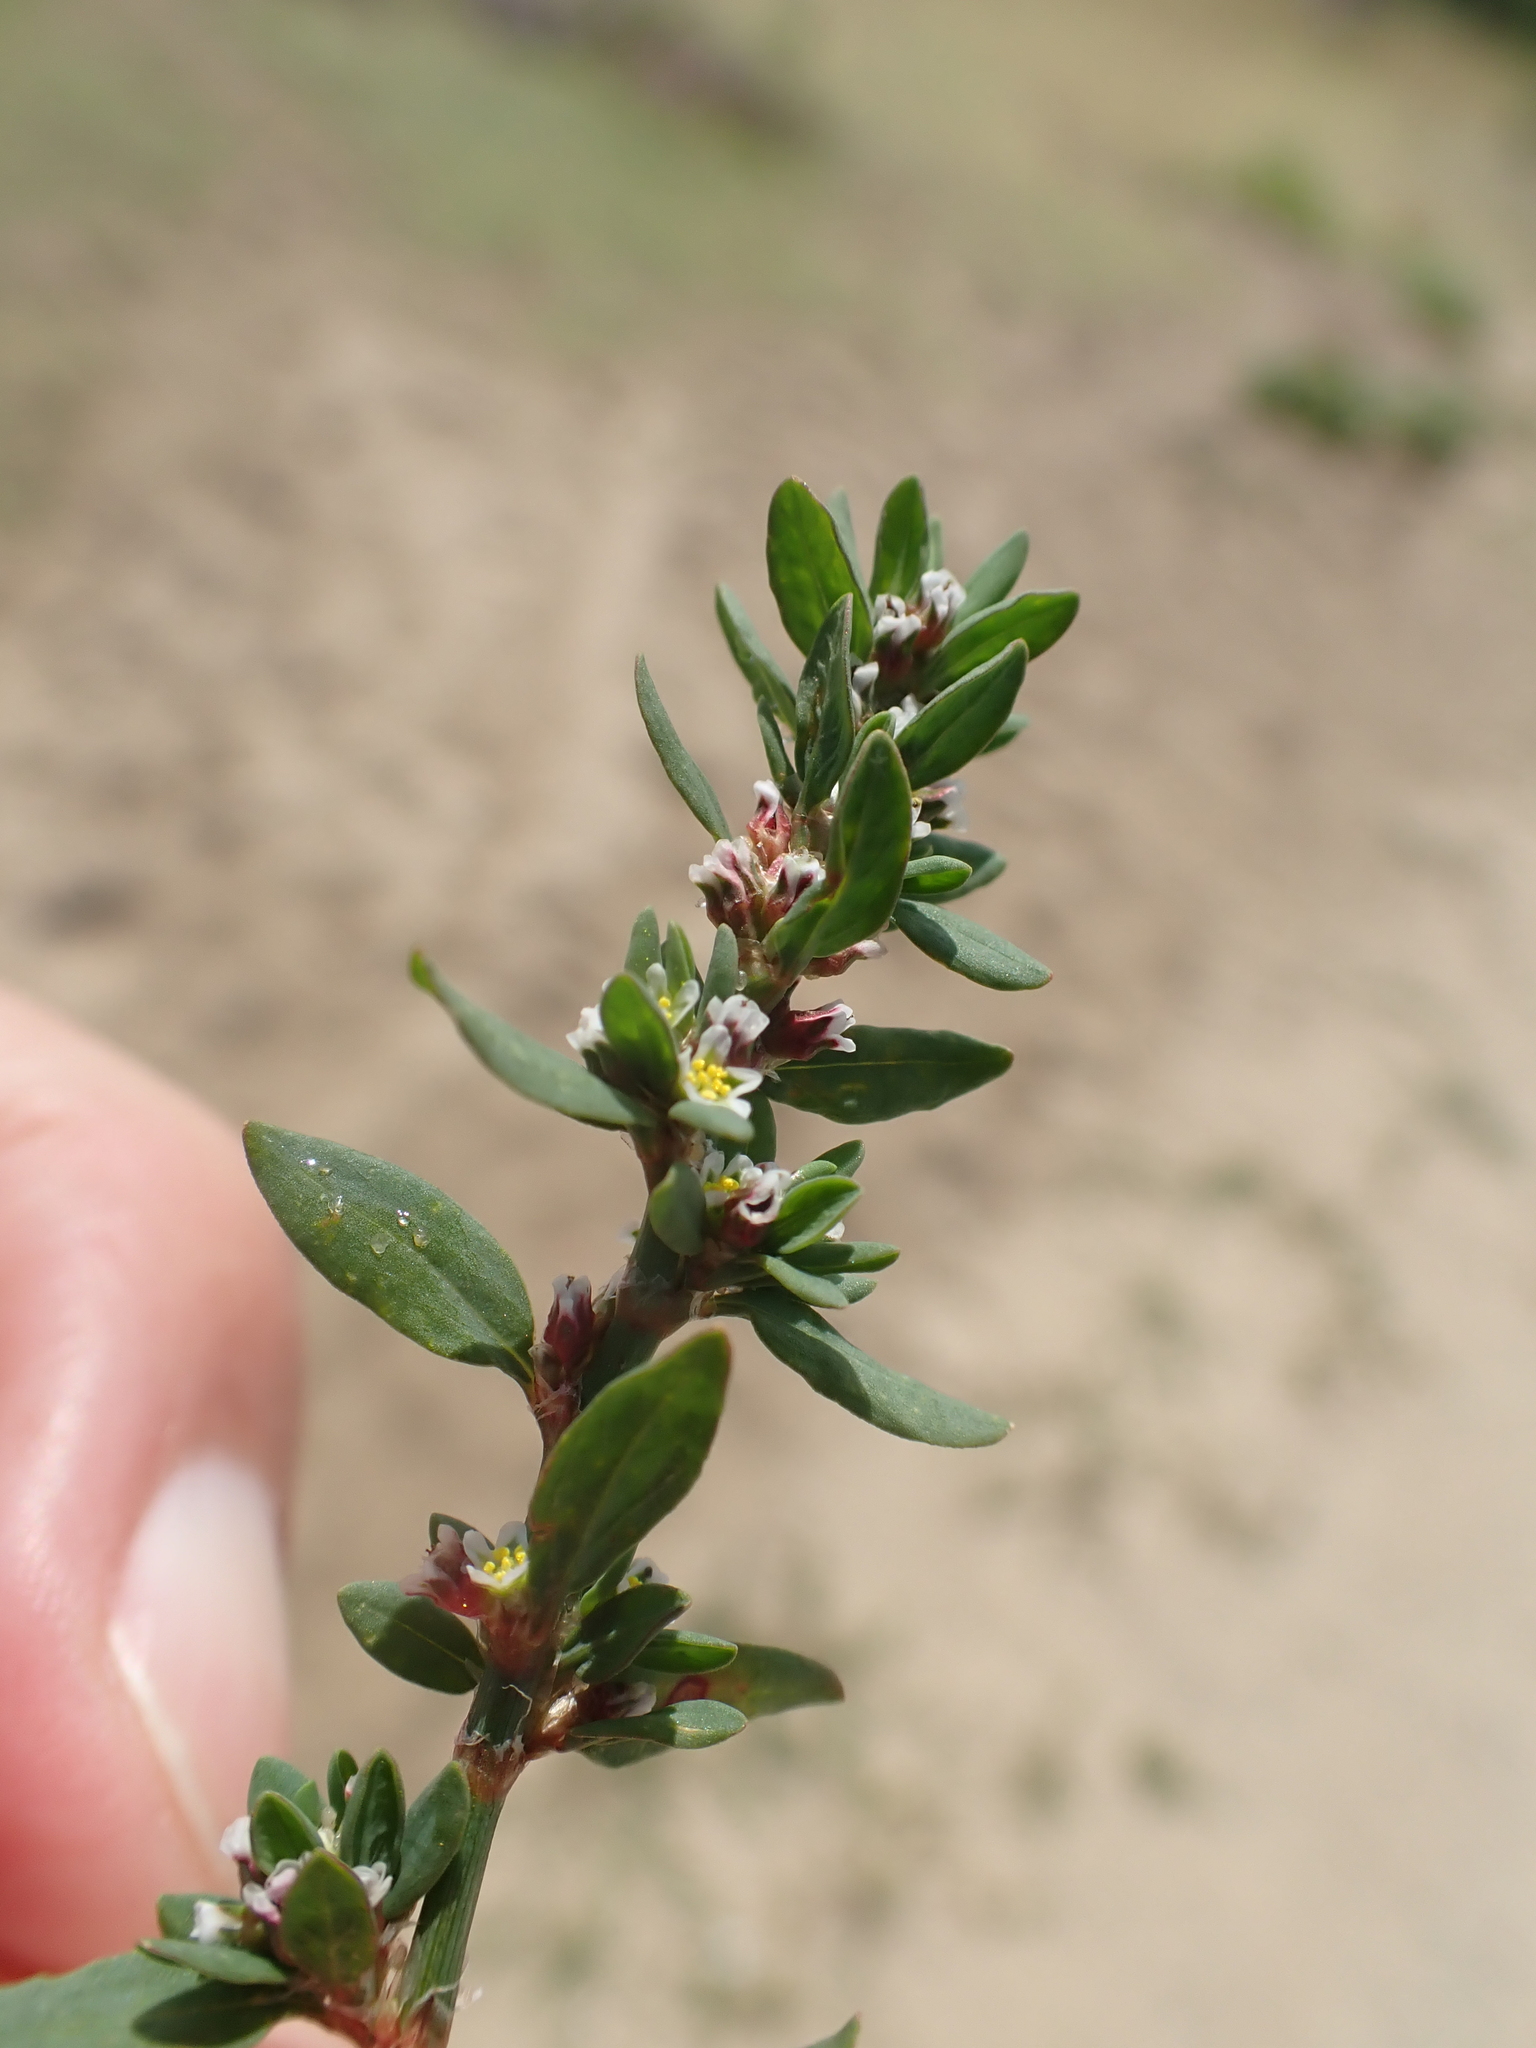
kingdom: Plantae
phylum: Tracheophyta
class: Magnoliopsida
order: Caryophyllales
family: Polygonaceae
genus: Polygonum
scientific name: Polygonum raii
